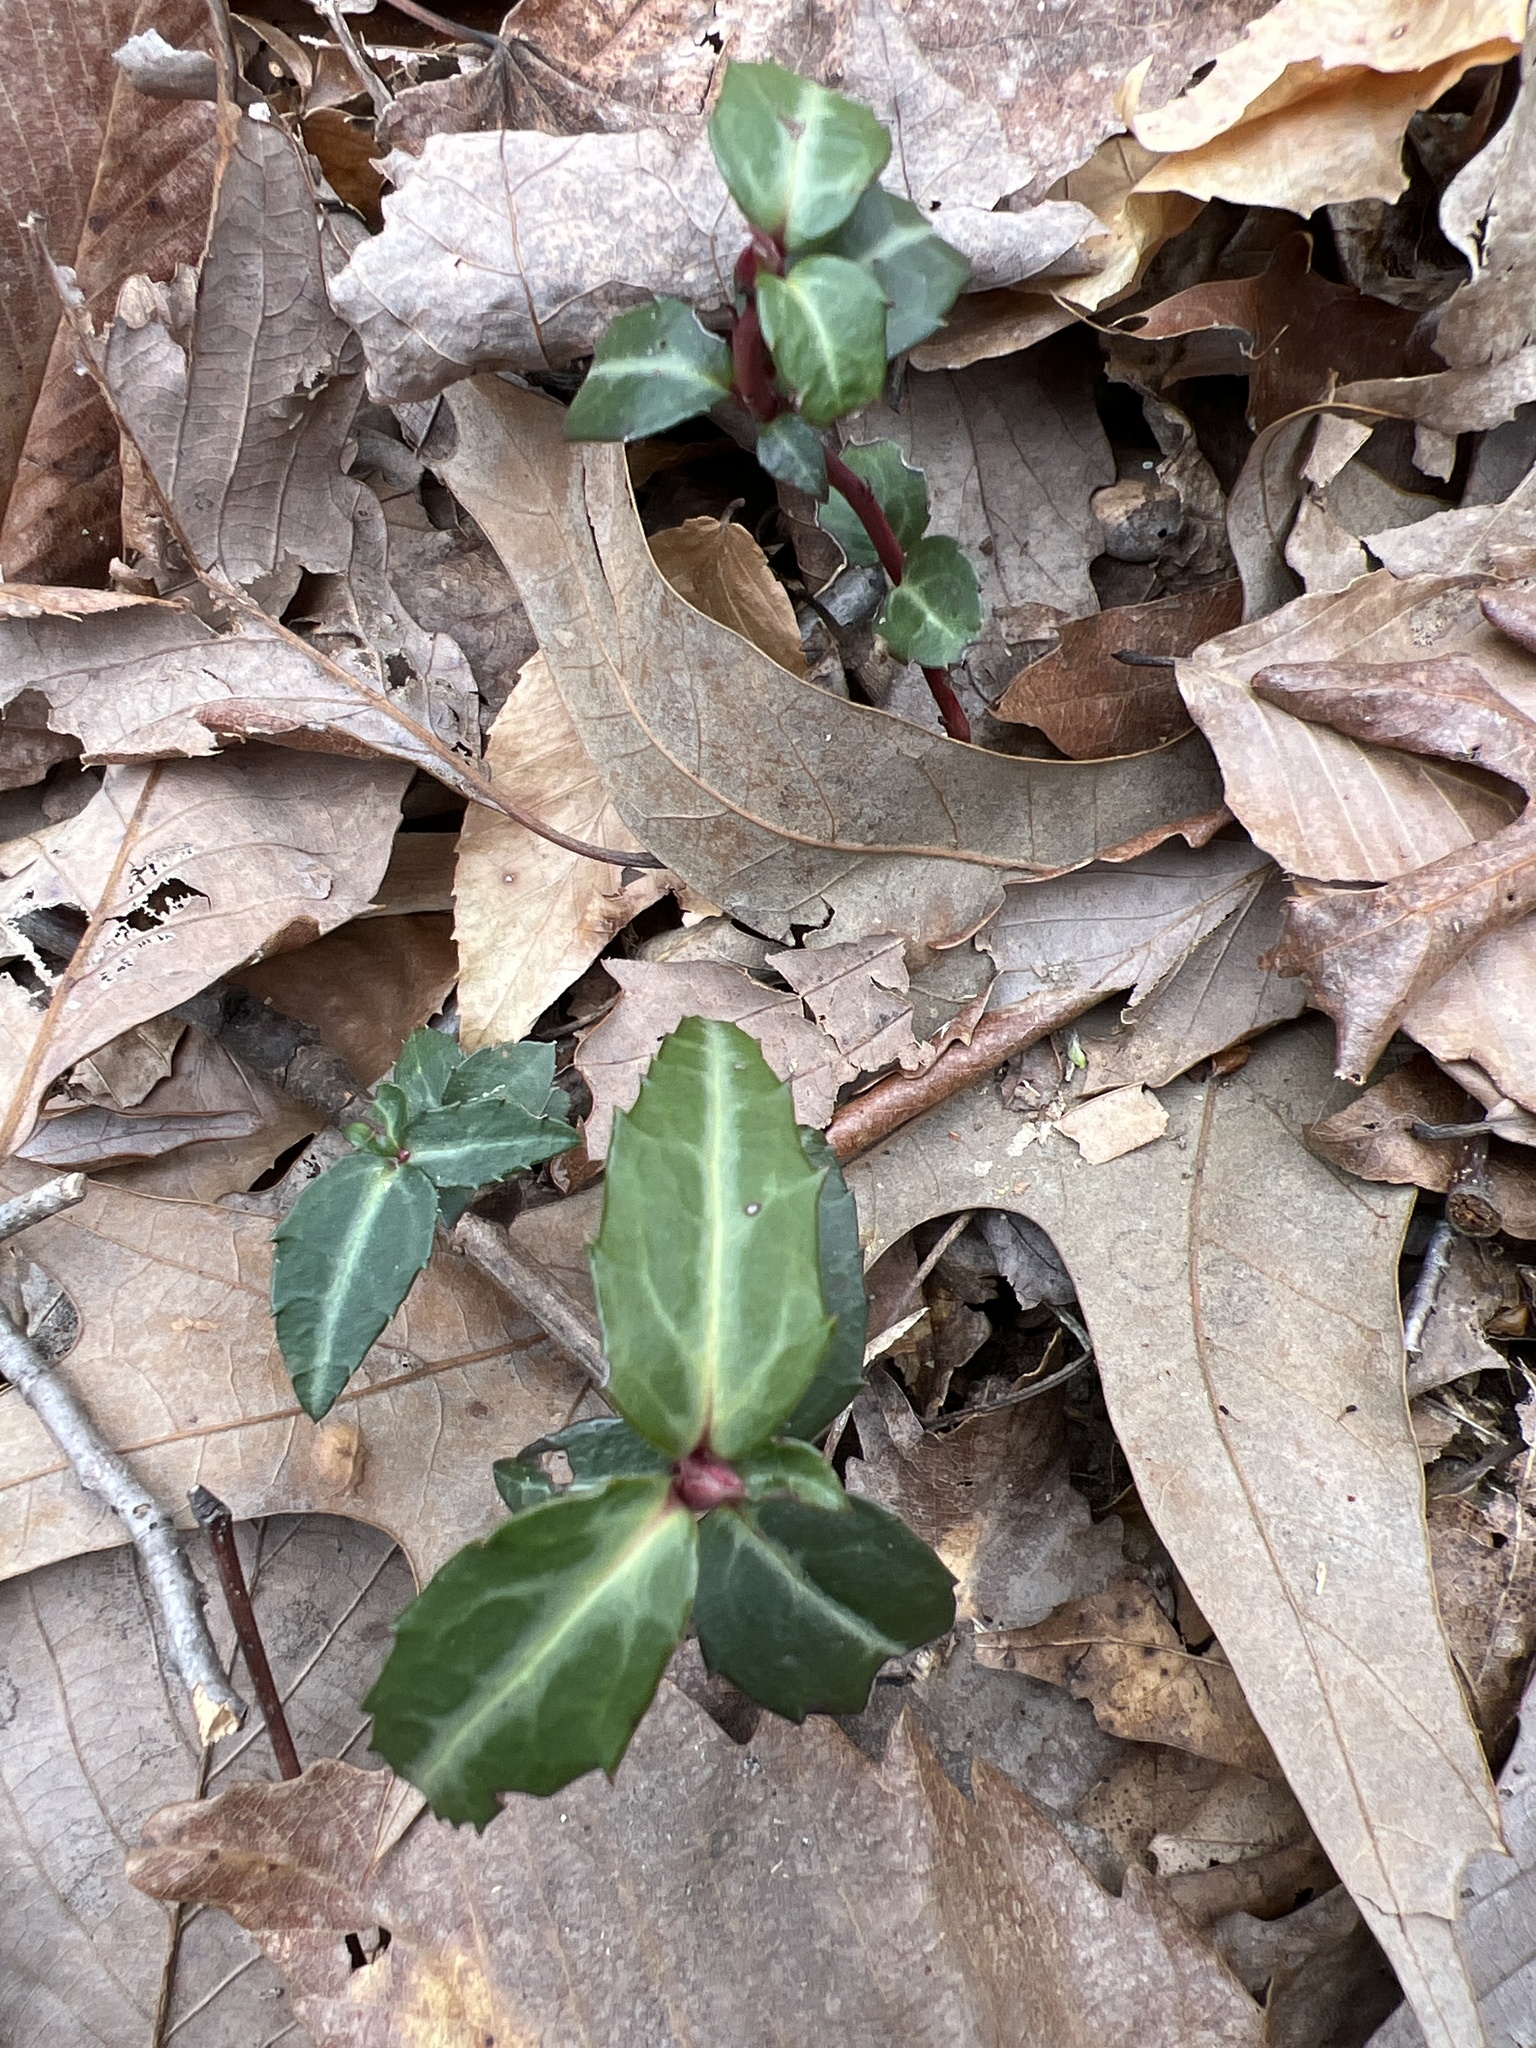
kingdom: Plantae
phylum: Tracheophyta
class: Magnoliopsida
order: Ericales
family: Ericaceae
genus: Chimaphila
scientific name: Chimaphila maculata
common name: Spotted pipsissewa
